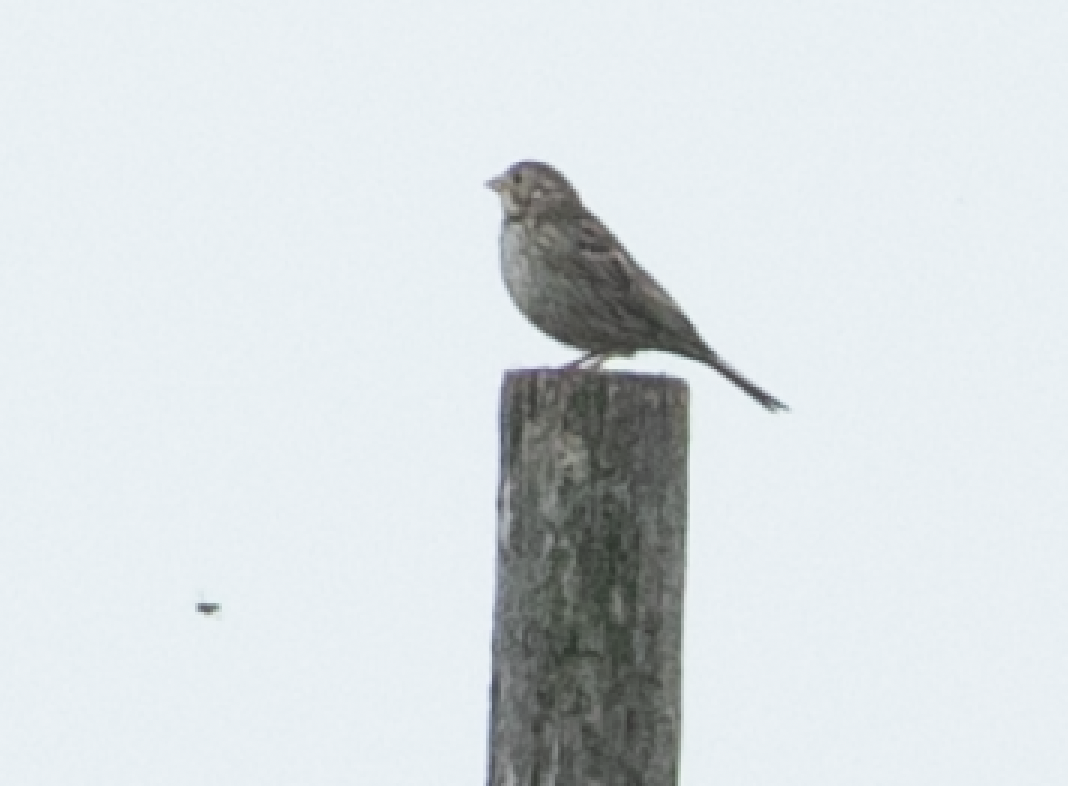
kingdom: Animalia
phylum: Chordata
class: Aves
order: Passeriformes
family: Emberizidae
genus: Emberiza
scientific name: Emberiza calandra
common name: Corn bunting
